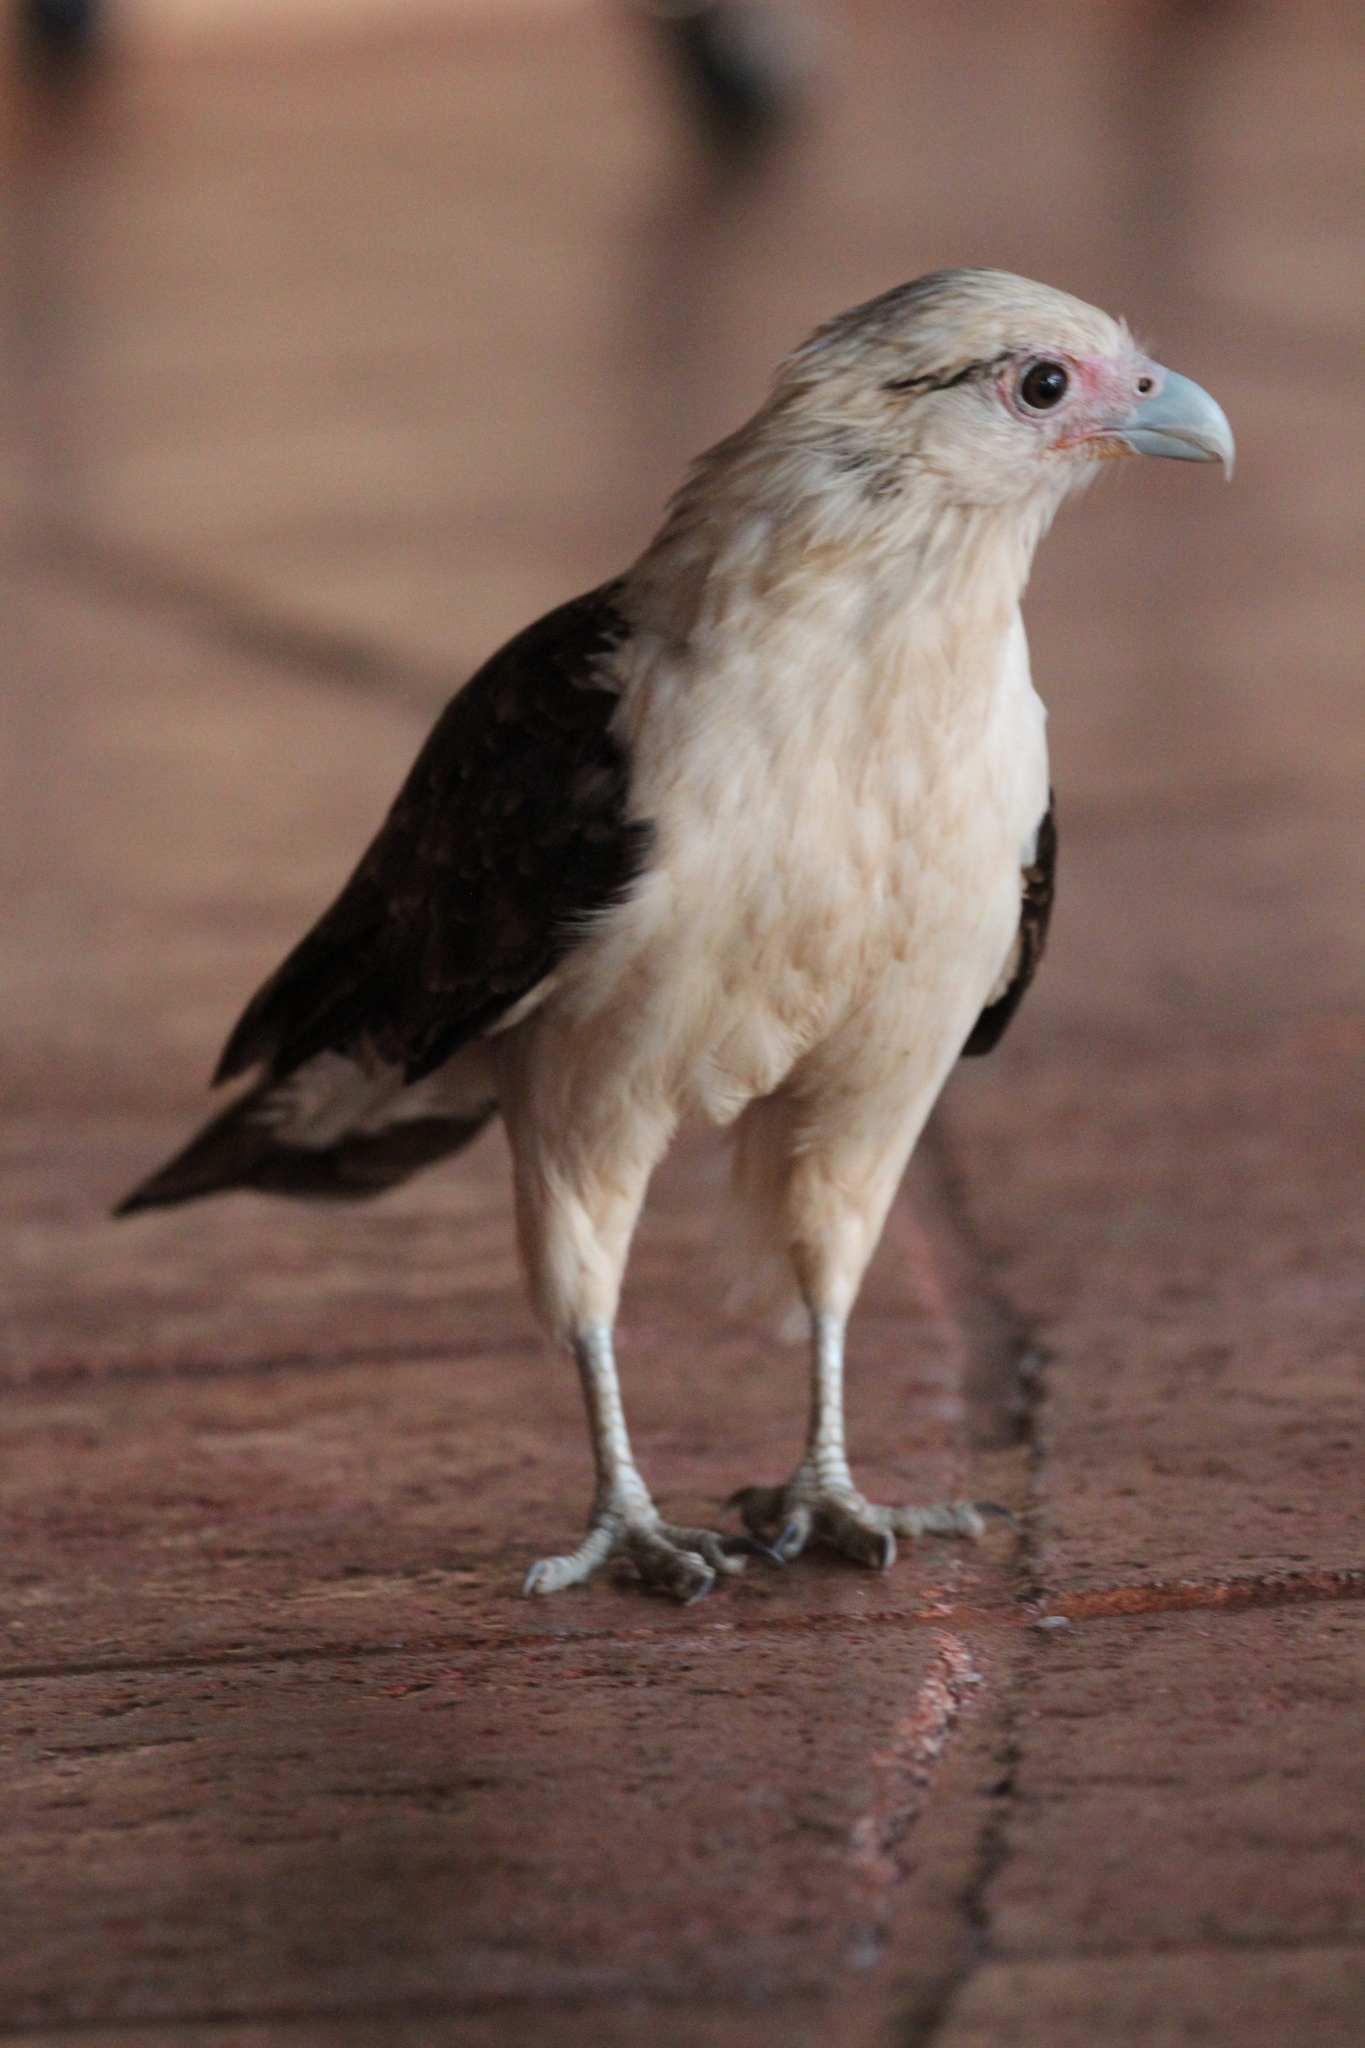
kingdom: Animalia
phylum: Chordata
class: Aves
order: Falconiformes
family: Falconidae
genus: Daptrius
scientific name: Daptrius
